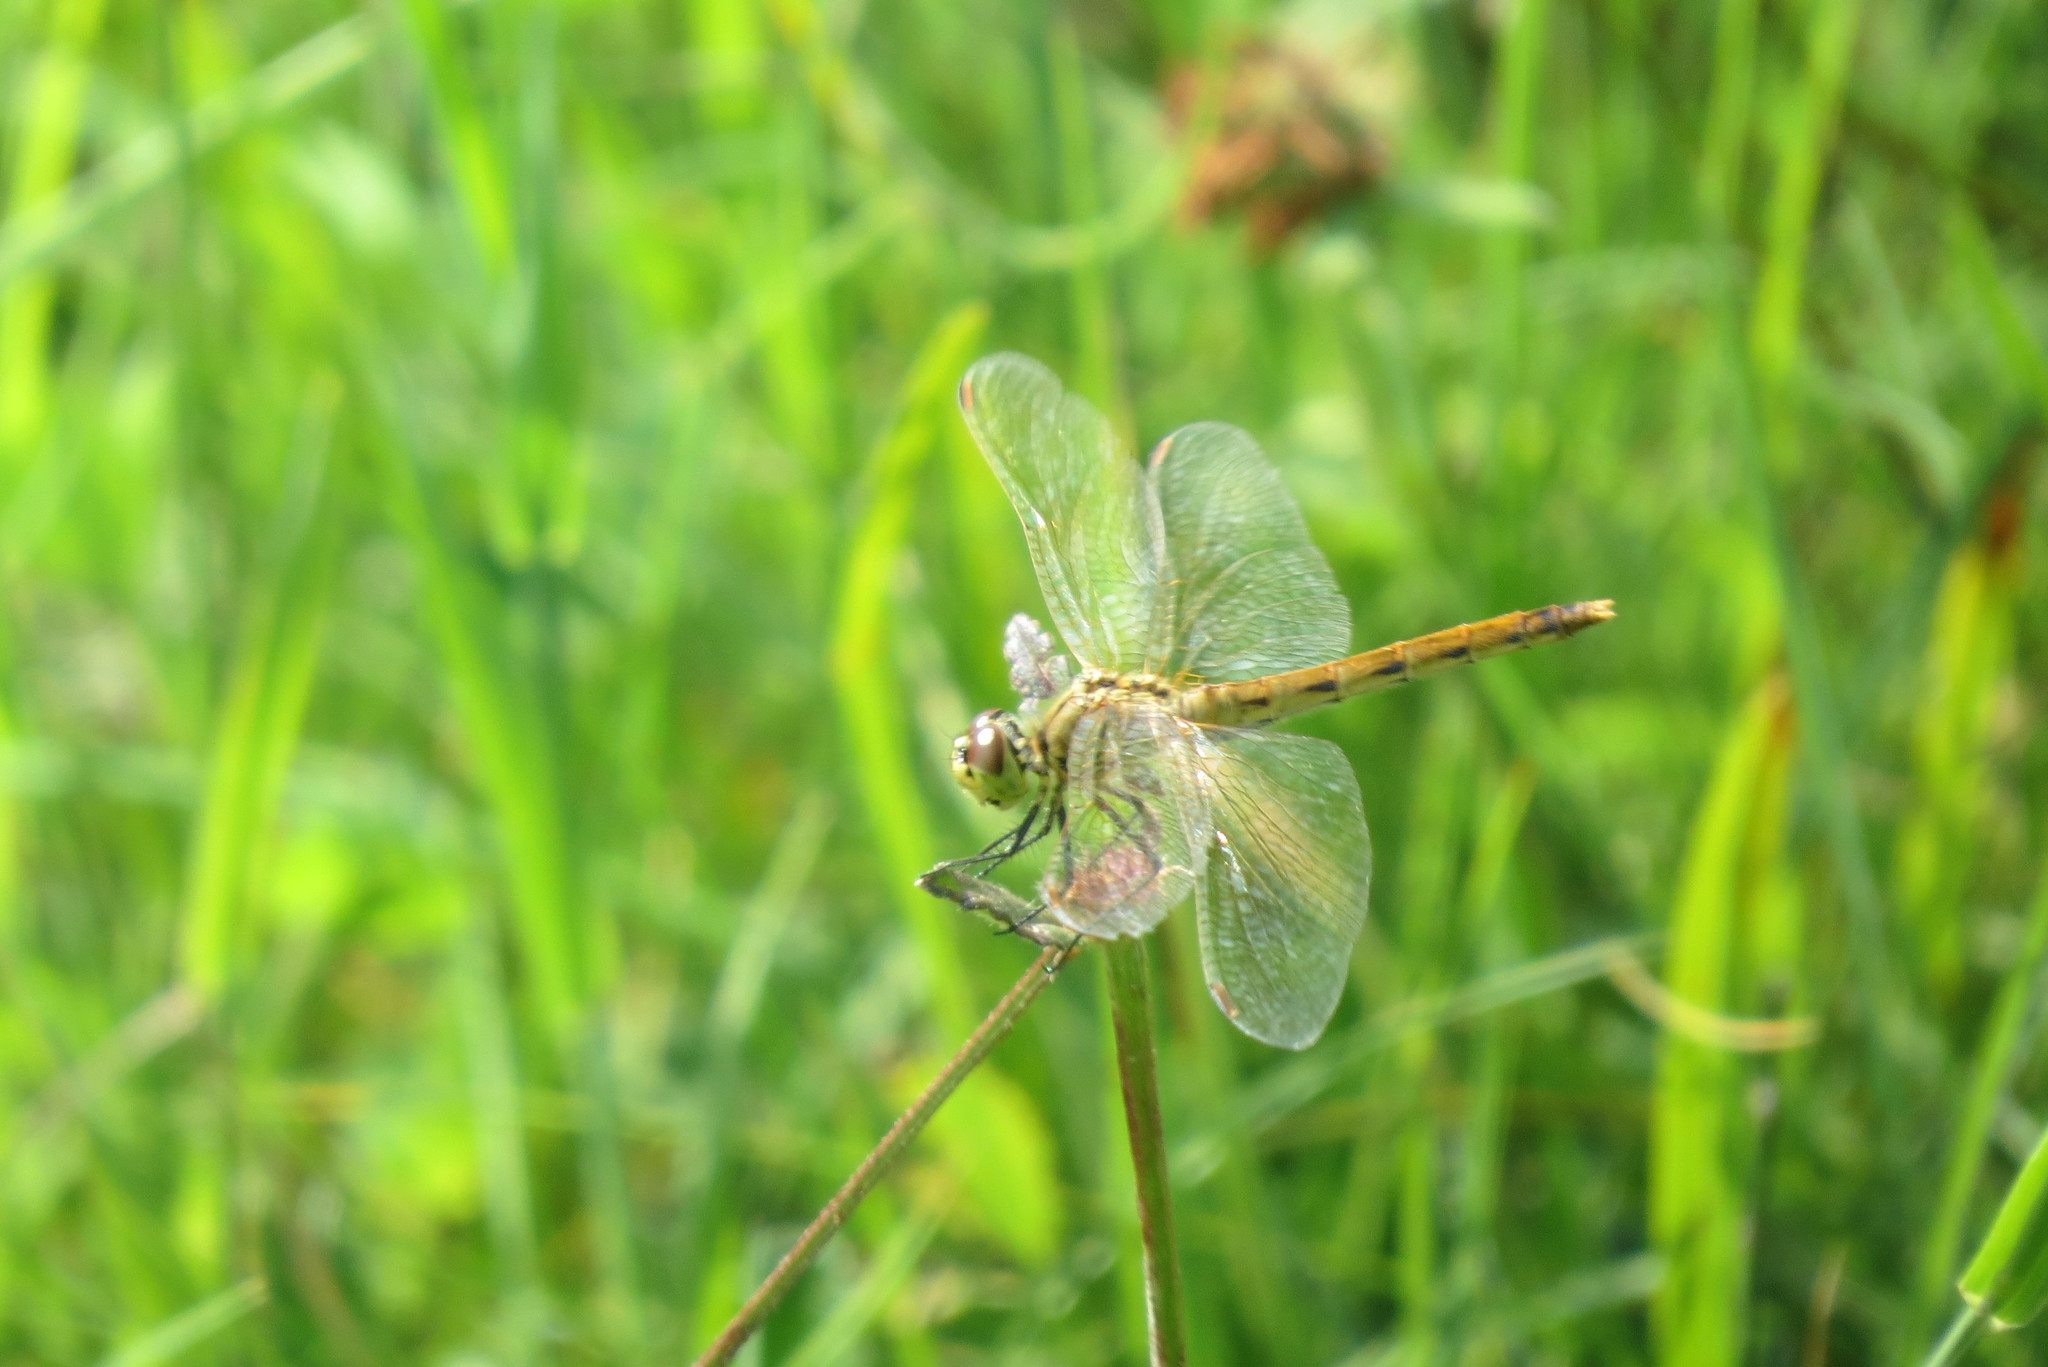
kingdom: Animalia
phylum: Arthropoda
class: Insecta
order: Odonata
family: Libellulidae
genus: Sympetrum
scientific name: Sympetrum depressiusculum
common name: Spotted darter
